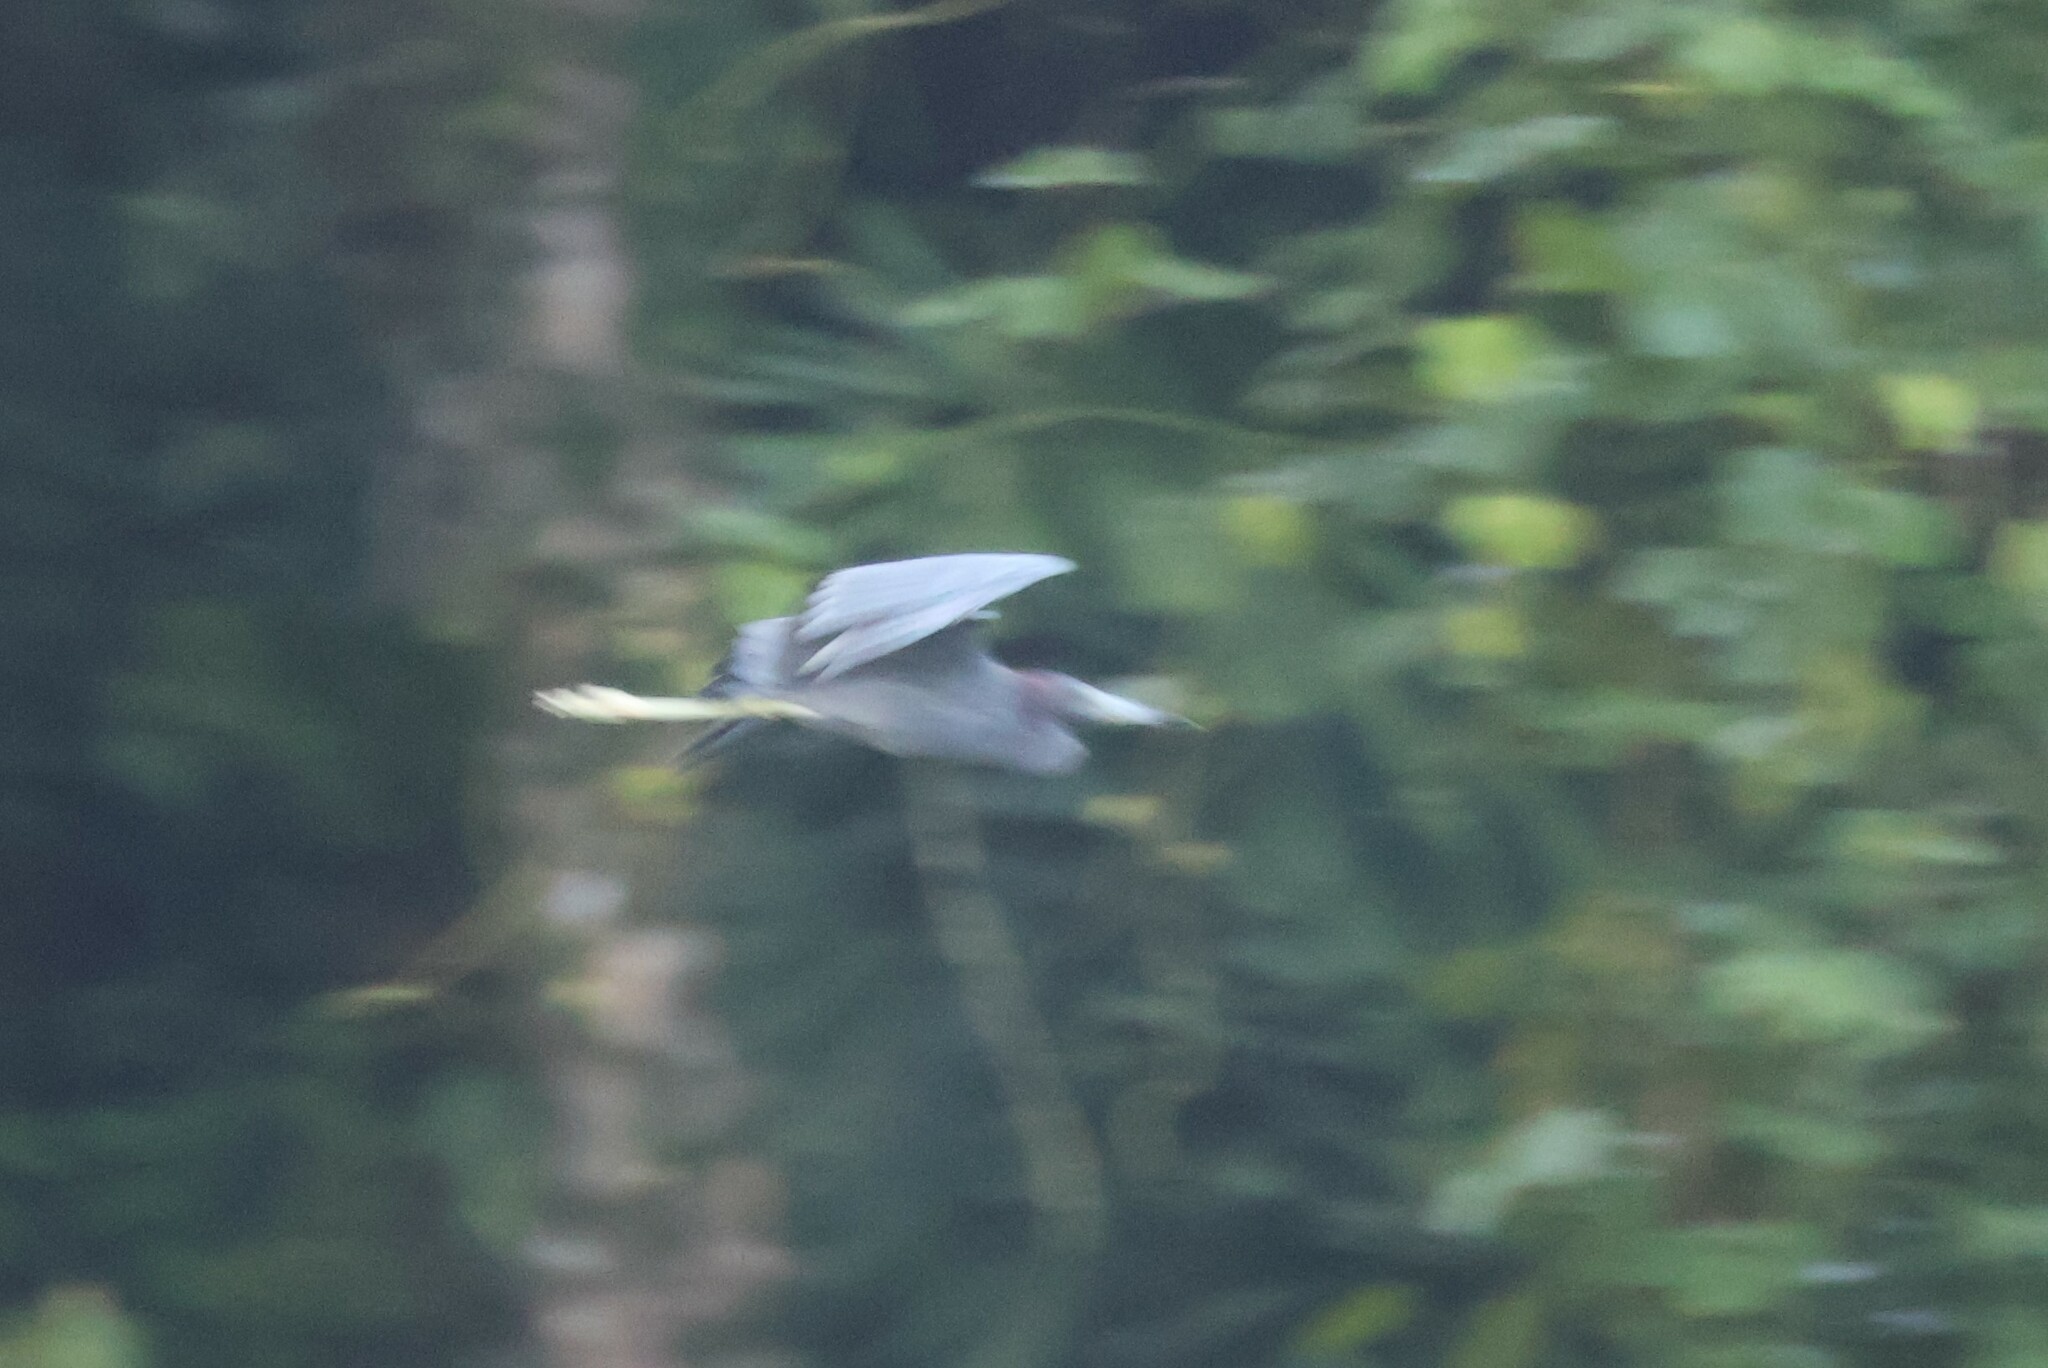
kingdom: Animalia
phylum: Chordata
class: Aves
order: Pelecaniformes
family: Ardeidae
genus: Egretta
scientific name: Egretta caerulea
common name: Little blue heron
